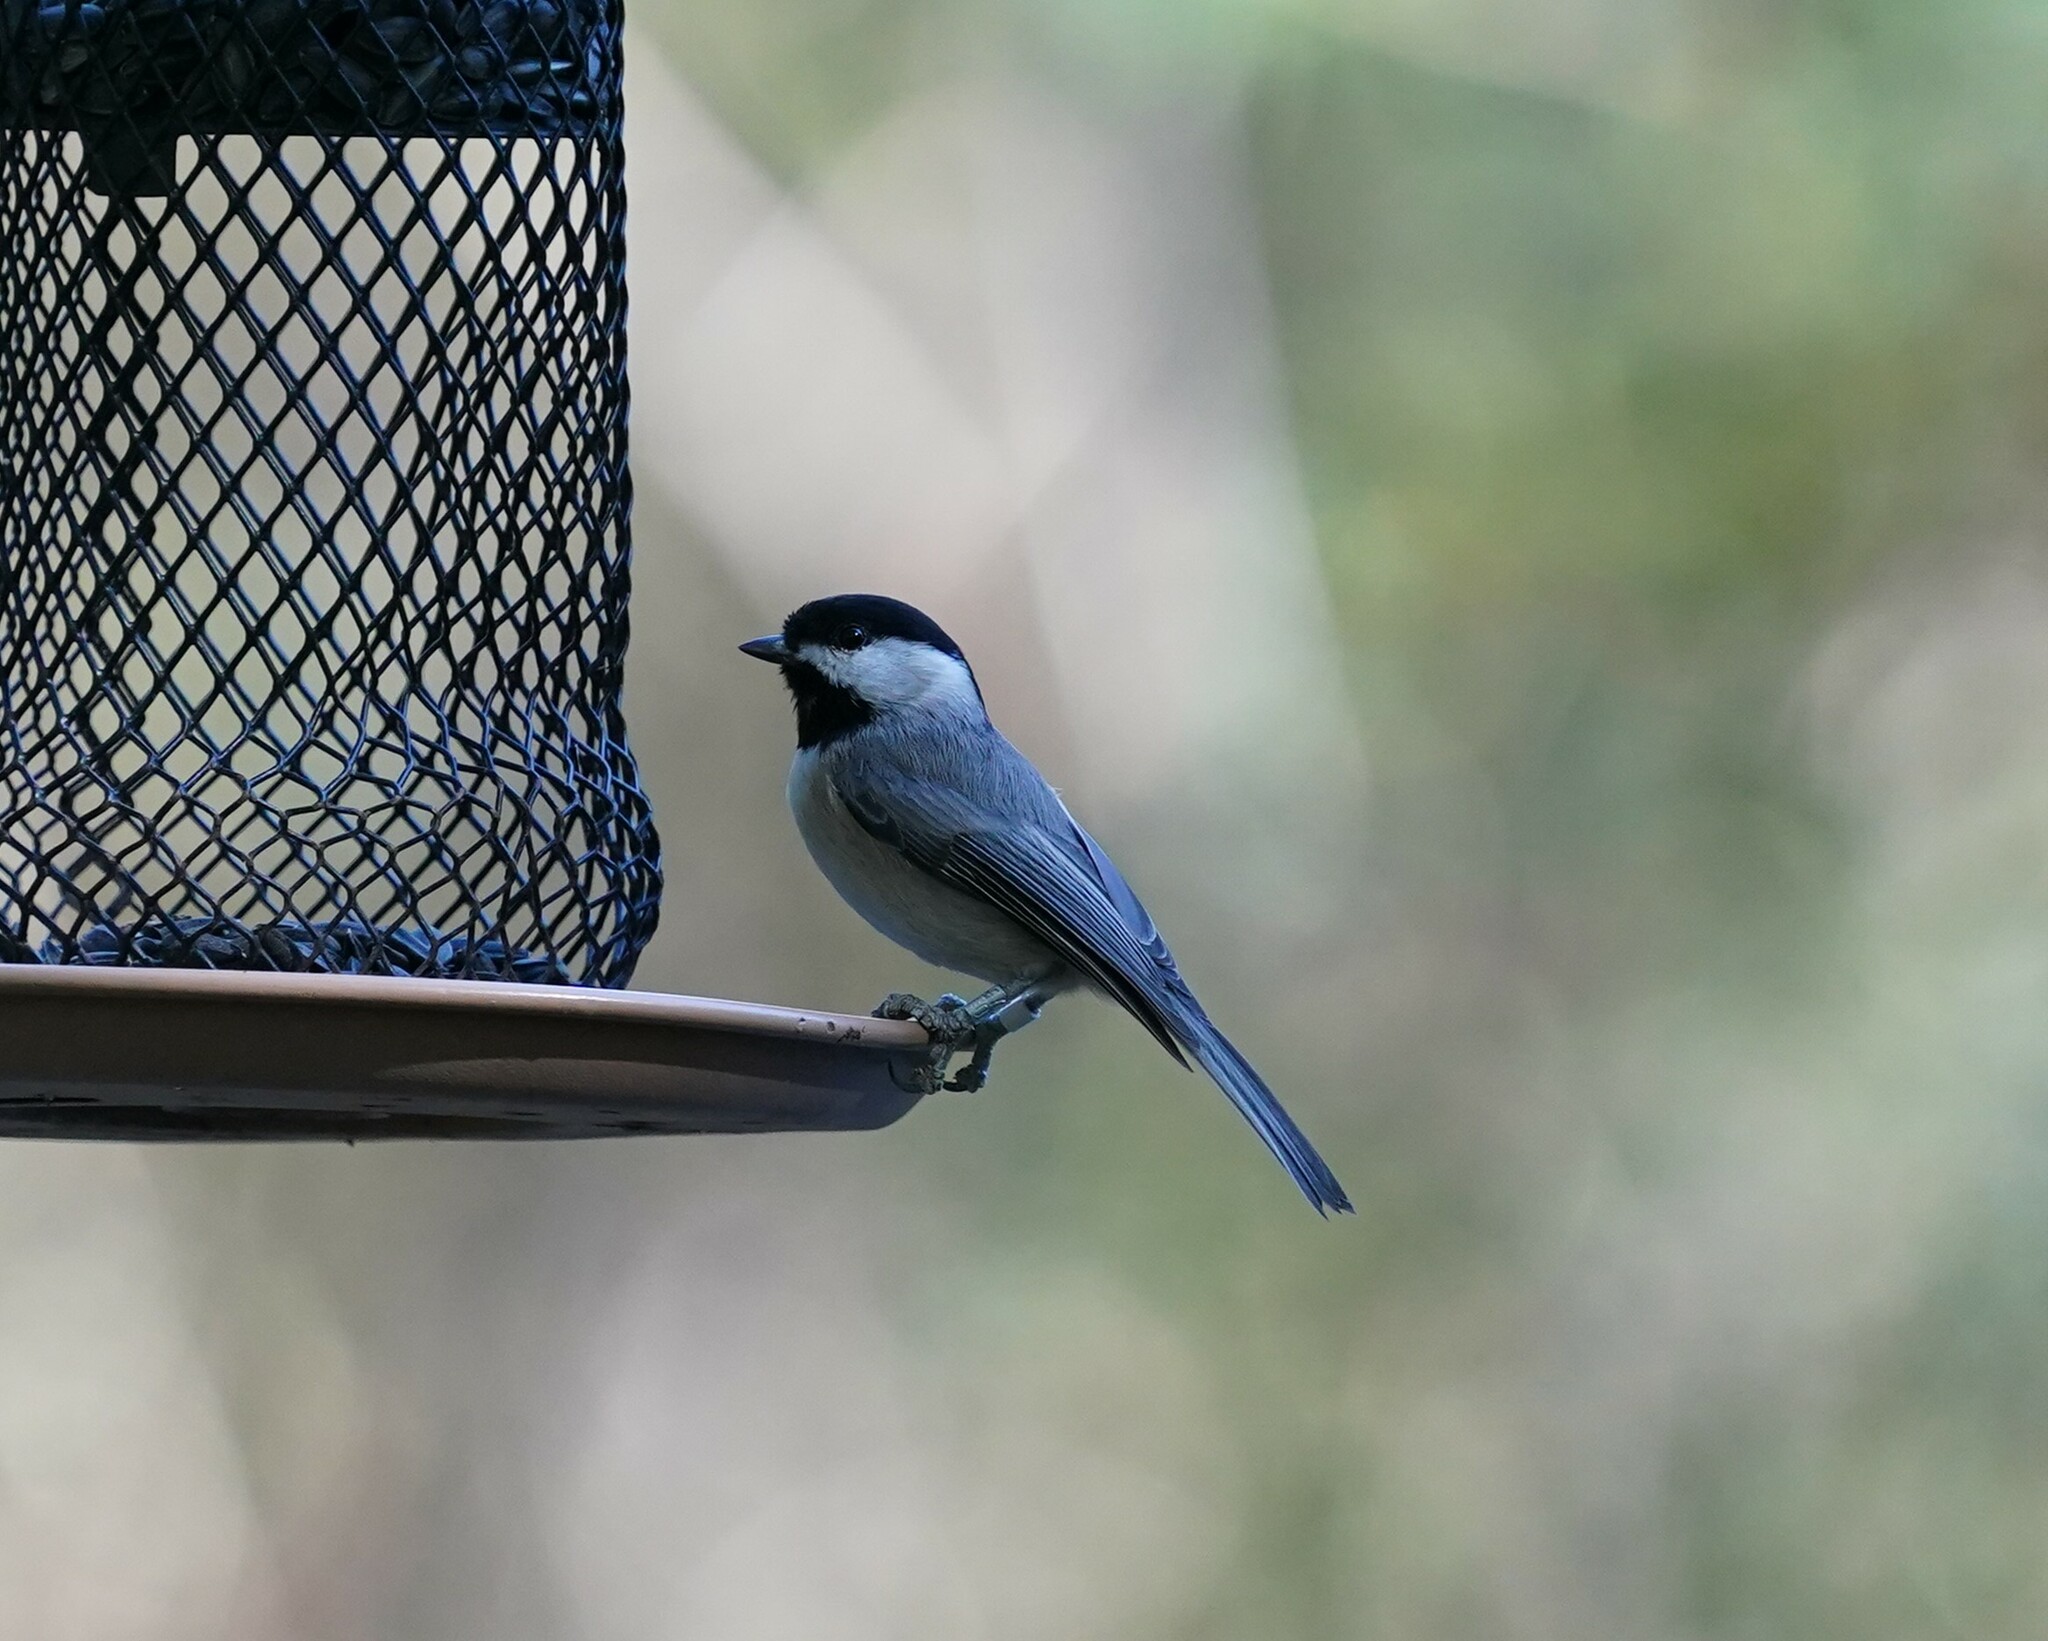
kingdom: Animalia
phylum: Chordata
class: Aves
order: Passeriformes
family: Paridae
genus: Poecile
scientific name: Poecile carolinensis
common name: Carolina chickadee
